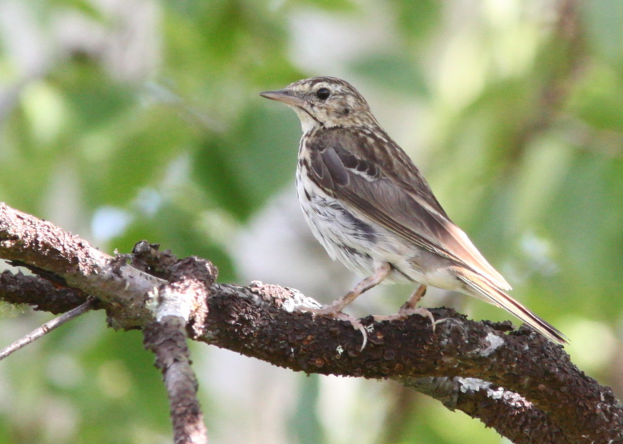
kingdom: Animalia
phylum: Chordata
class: Aves
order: Passeriformes
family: Motacillidae
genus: Anthus
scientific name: Anthus trivialis
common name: Tree pipit
